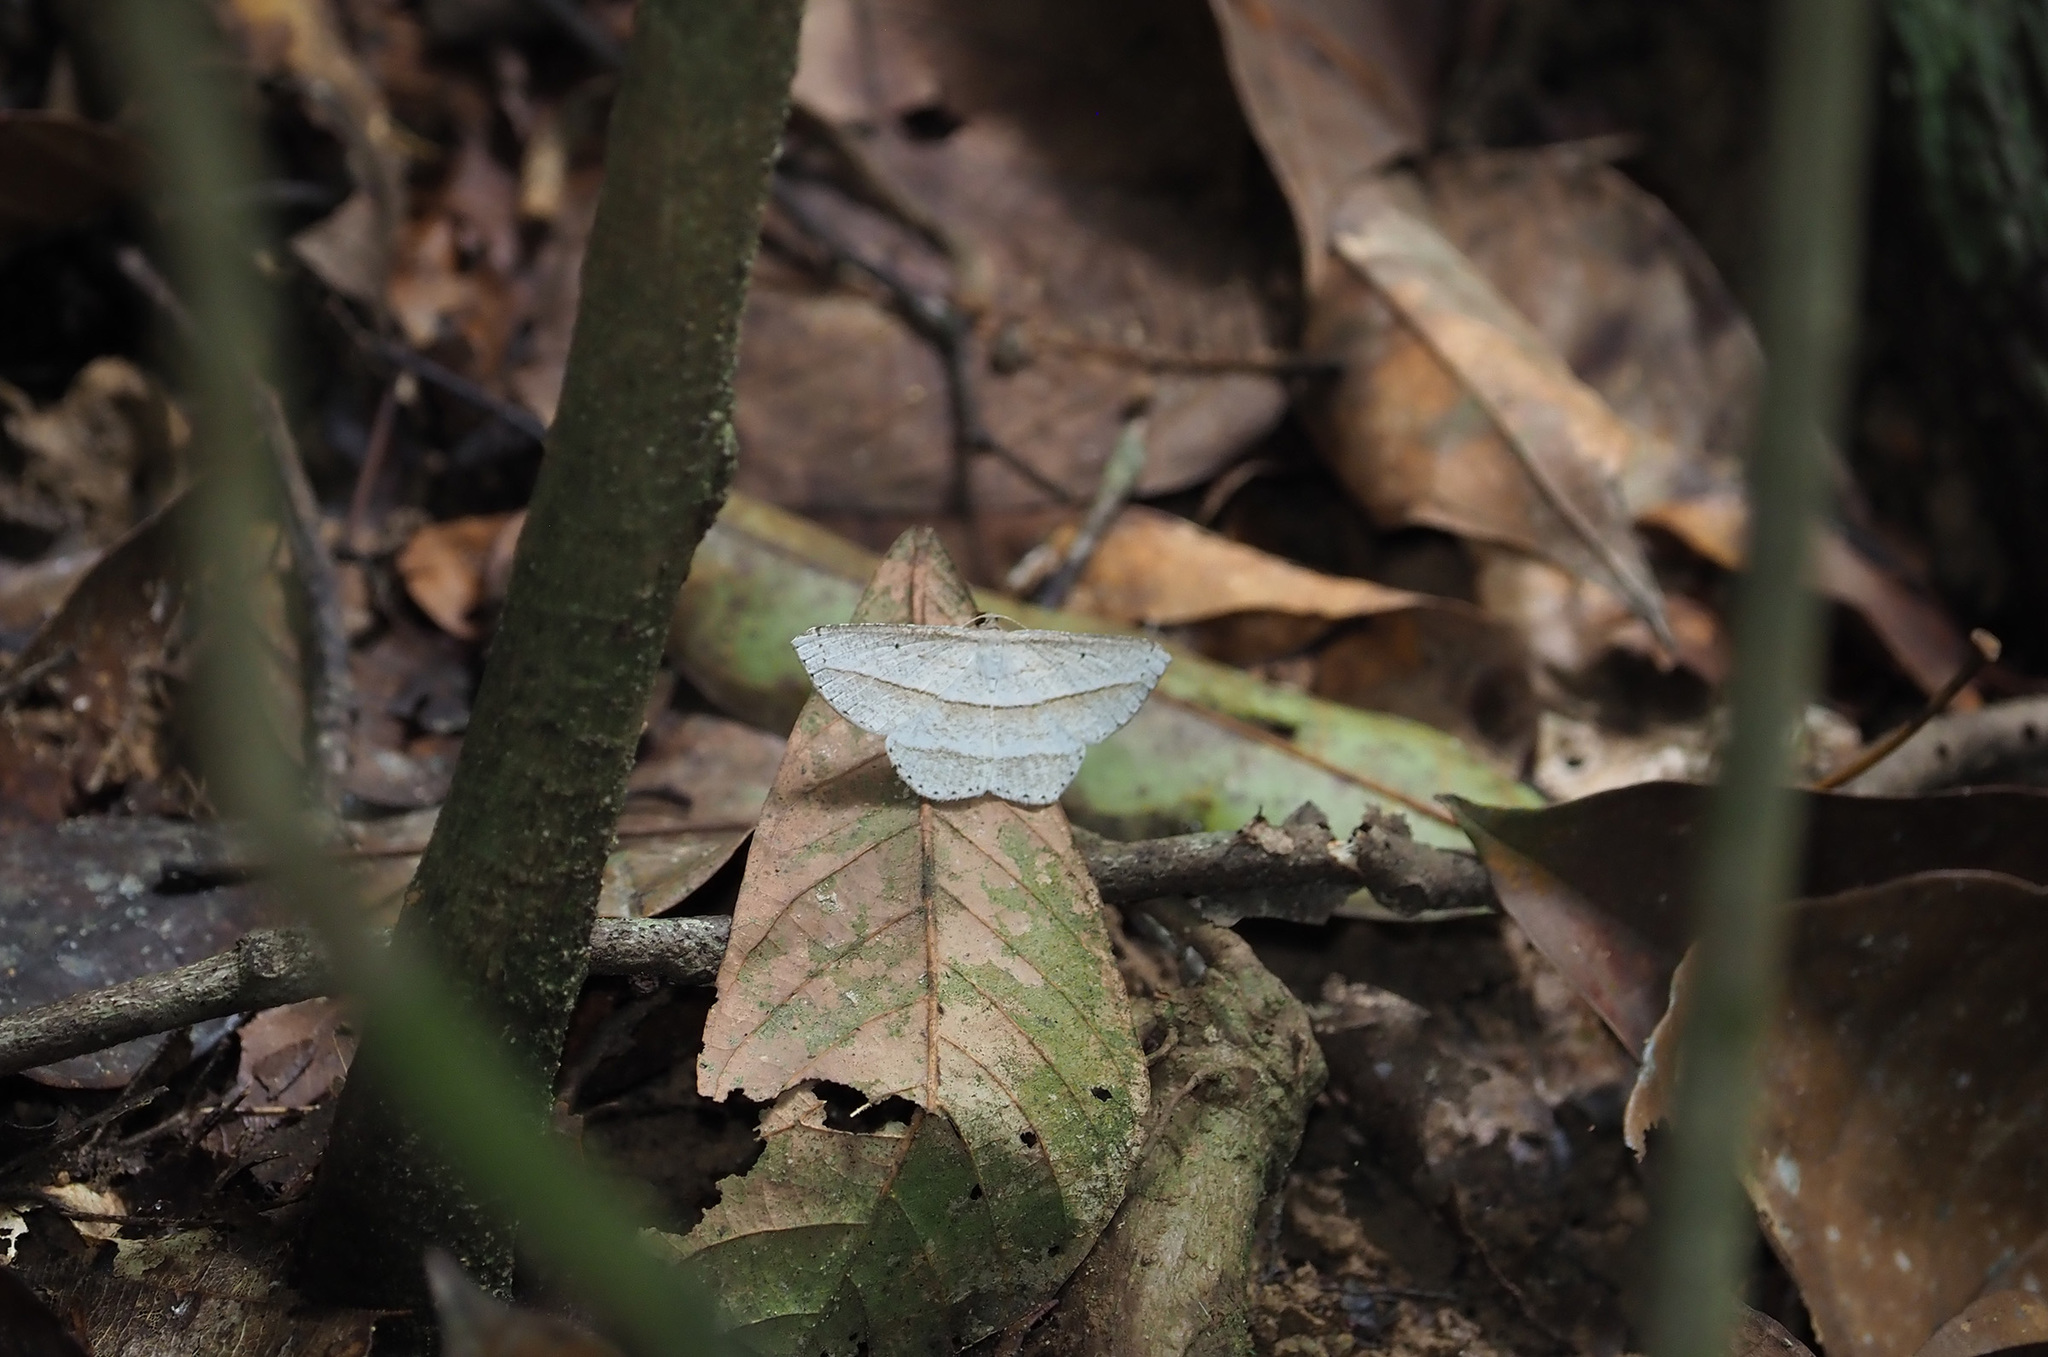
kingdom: Animalia
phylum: Arthropoda
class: Insecta
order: Lepidoptera
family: Geometridae
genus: Heteralex
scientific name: Heteralex rectilineata
